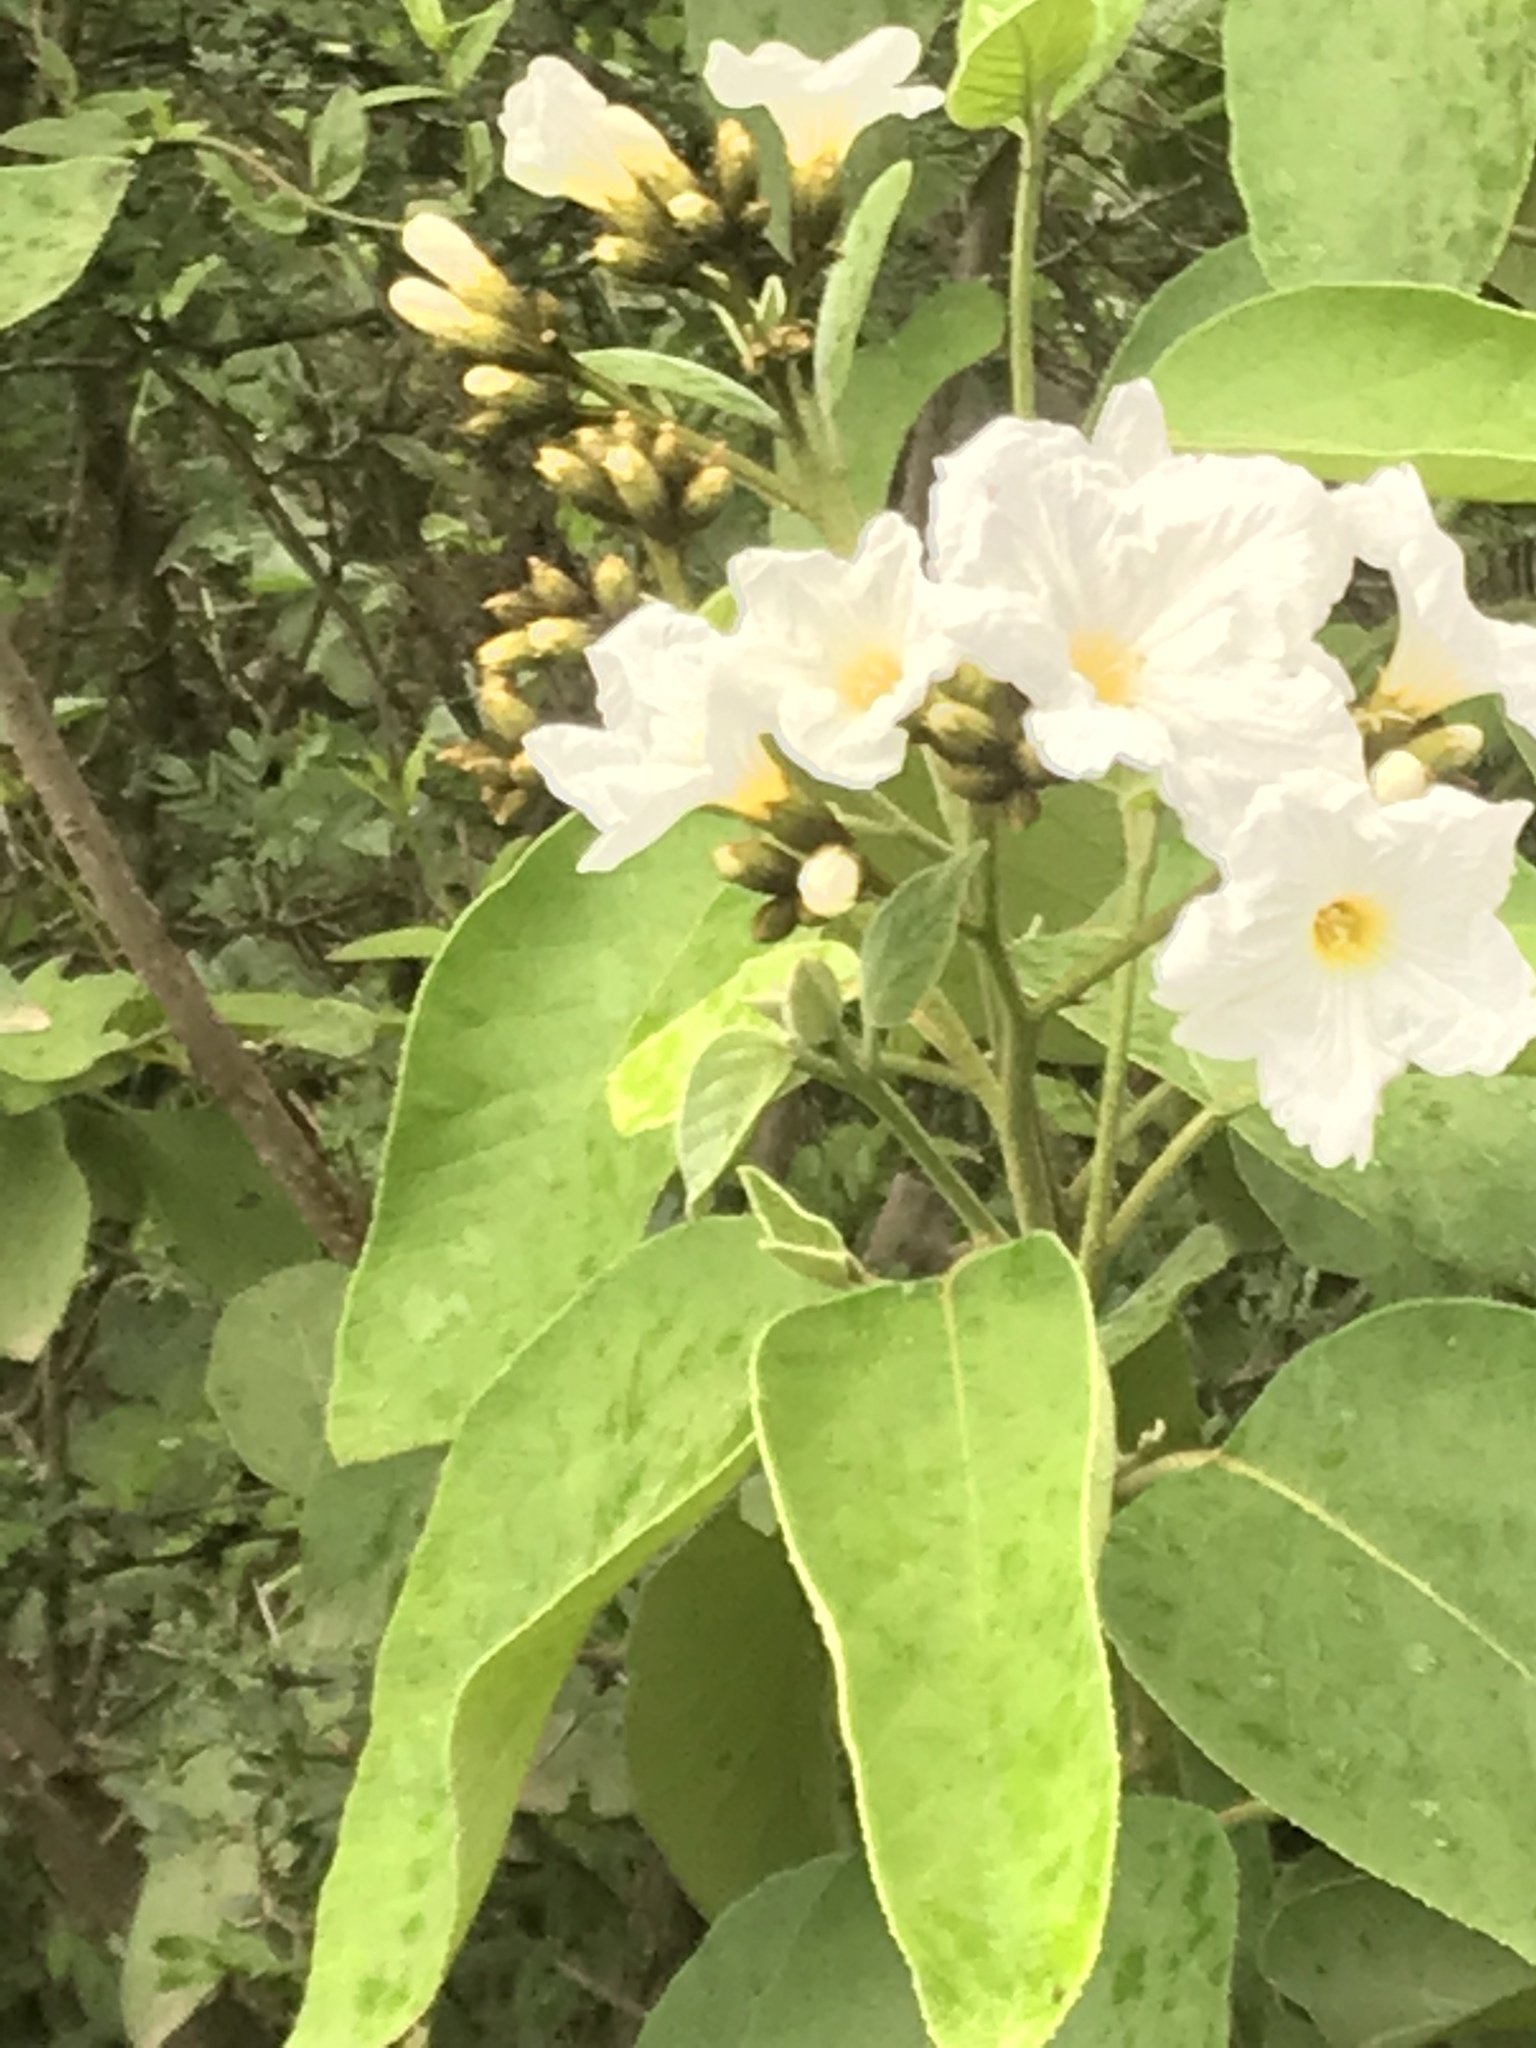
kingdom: Plantae
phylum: Tracheophyta
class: Magnoliopsida
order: Boraginales
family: Cordiaceae
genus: Cordia
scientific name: Cordia boissieri
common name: Mexican-olive
